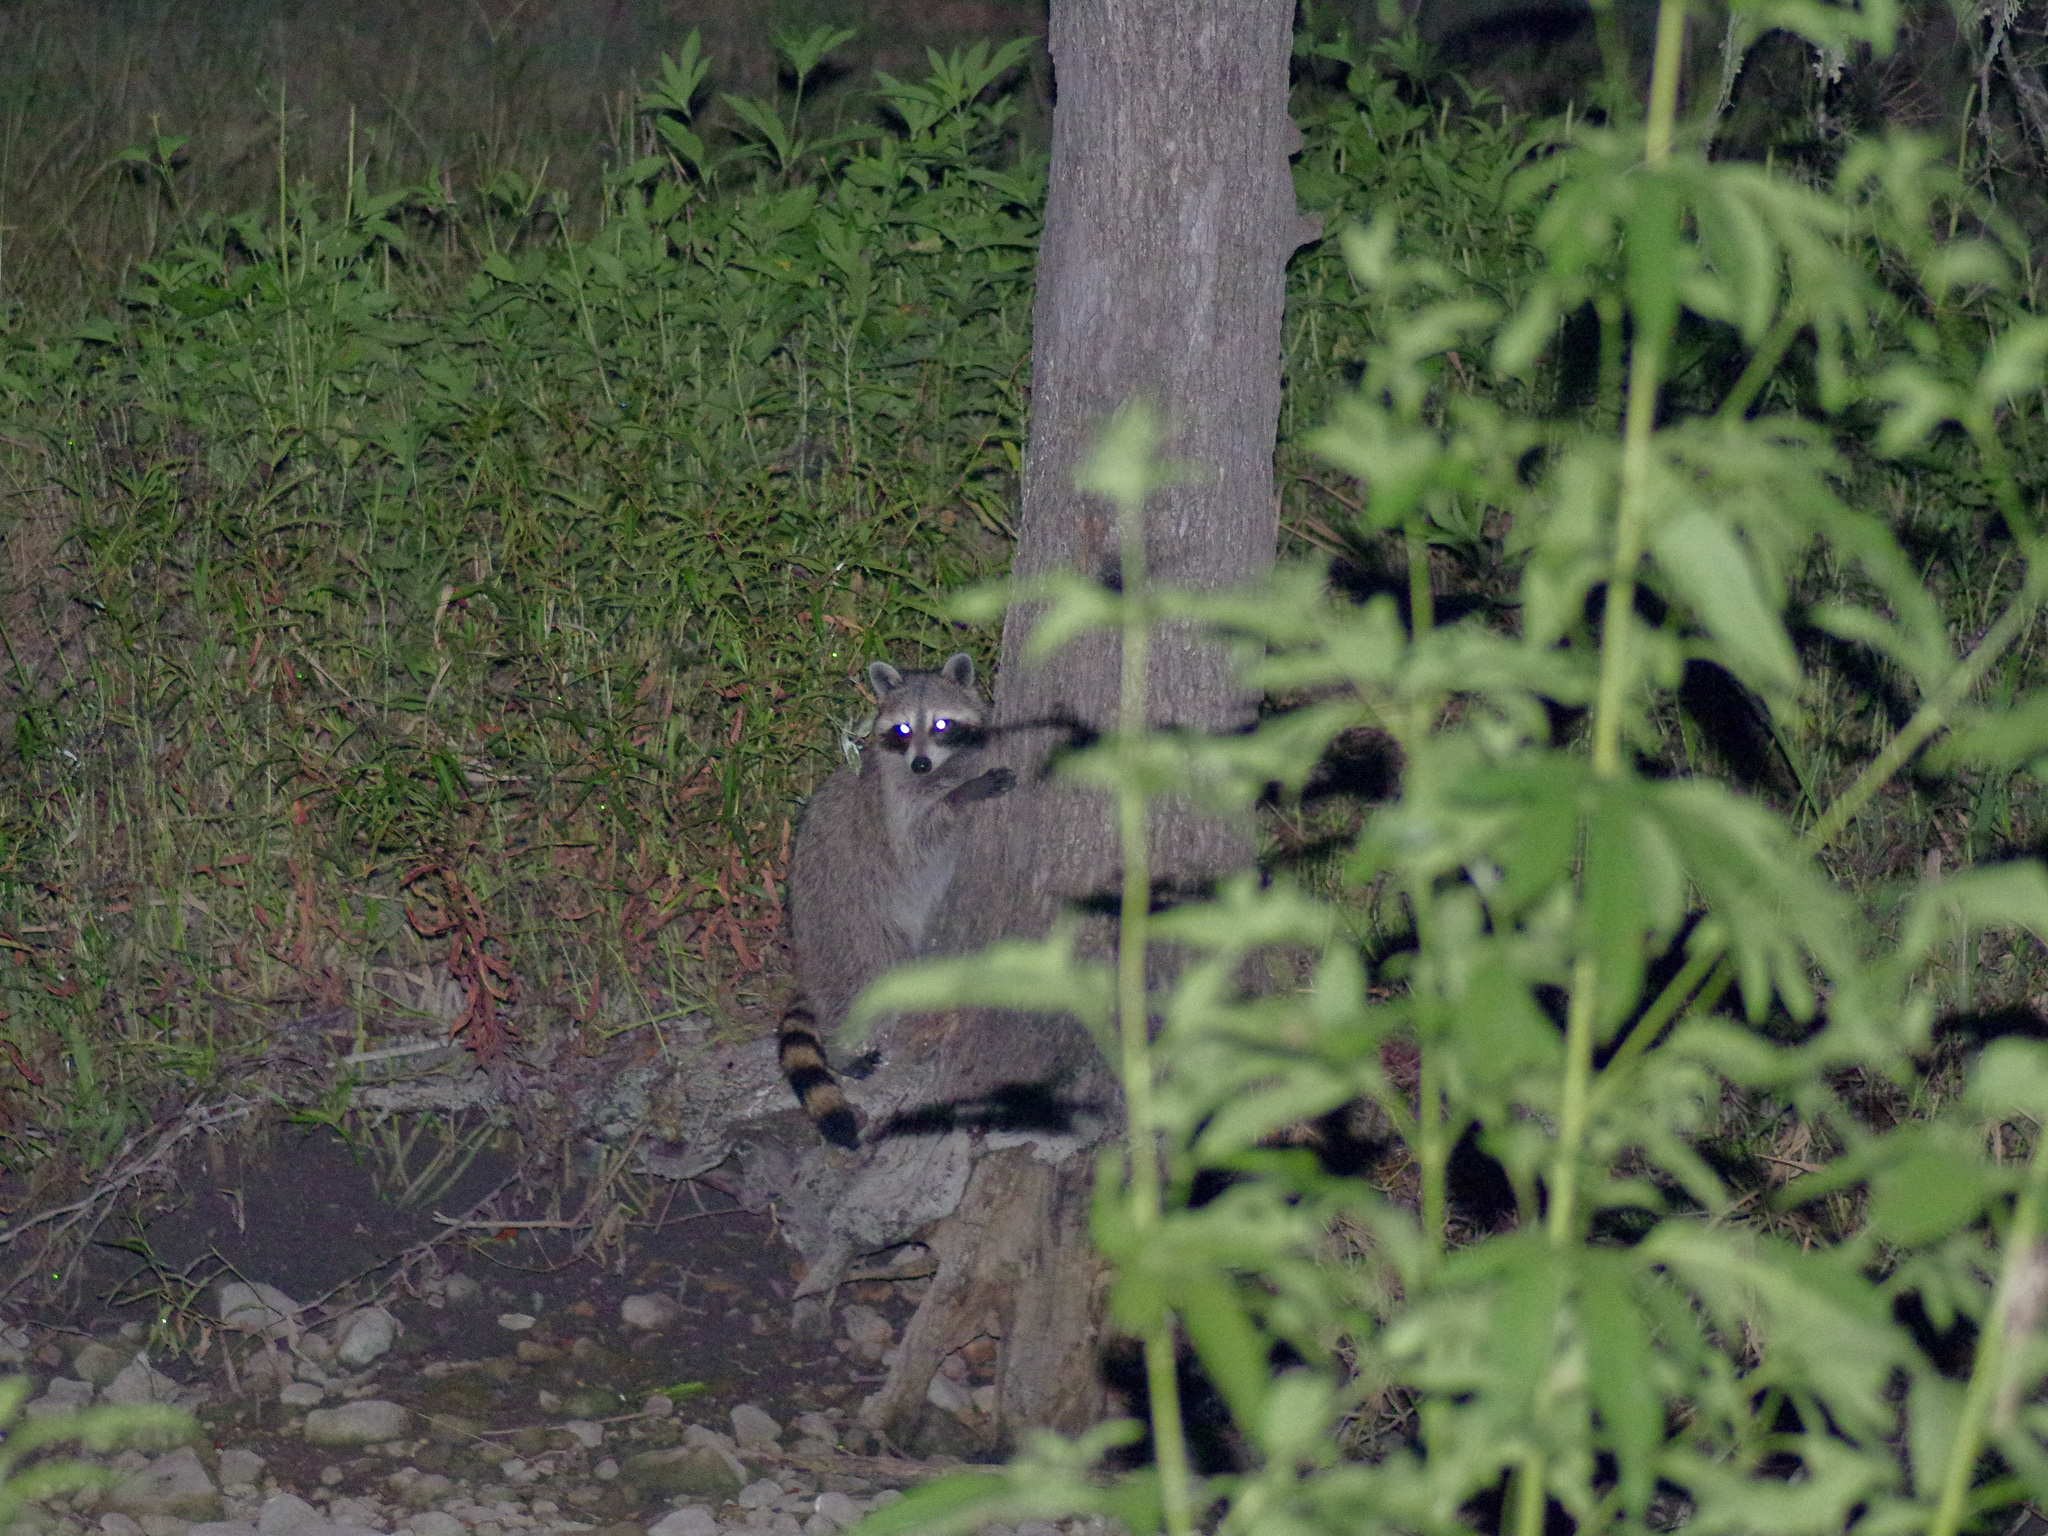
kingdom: Animalia
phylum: Chordata
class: Mammalia
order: Carnivora
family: Procyonidae
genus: Procyon
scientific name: Procyon lotor
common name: Raccoon
